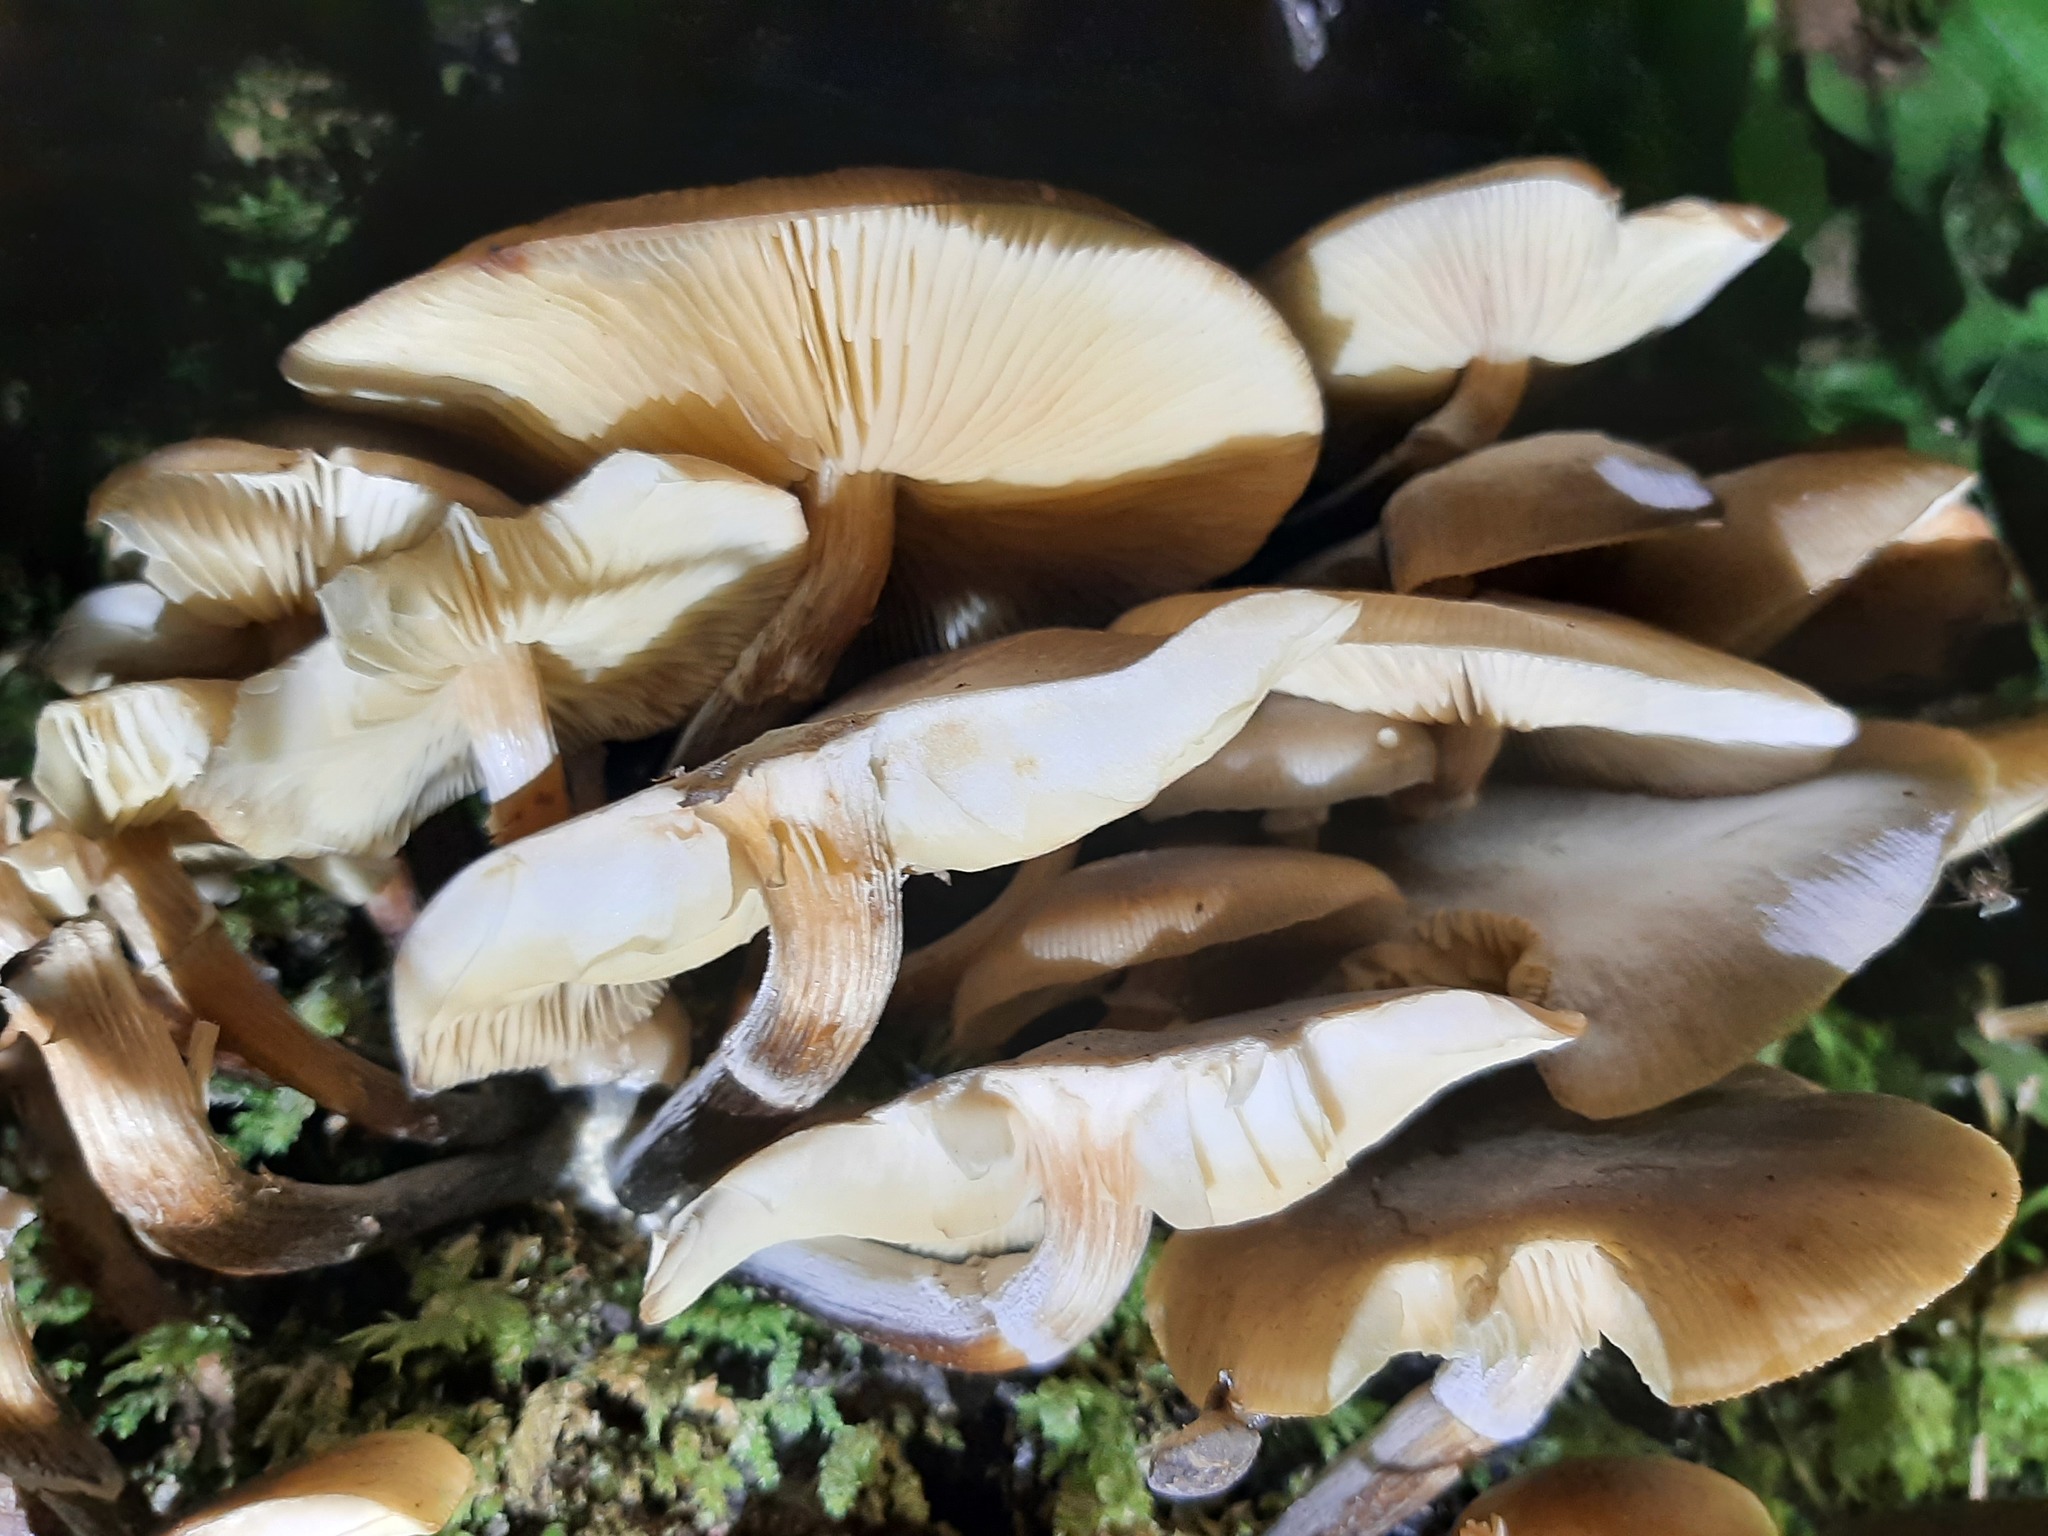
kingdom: Fungi
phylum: Basidiomycota
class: Agaricomycetes
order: Agaricales
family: Physalacriaceae
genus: Armillaria
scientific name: Armillaria novae-zelandiae
